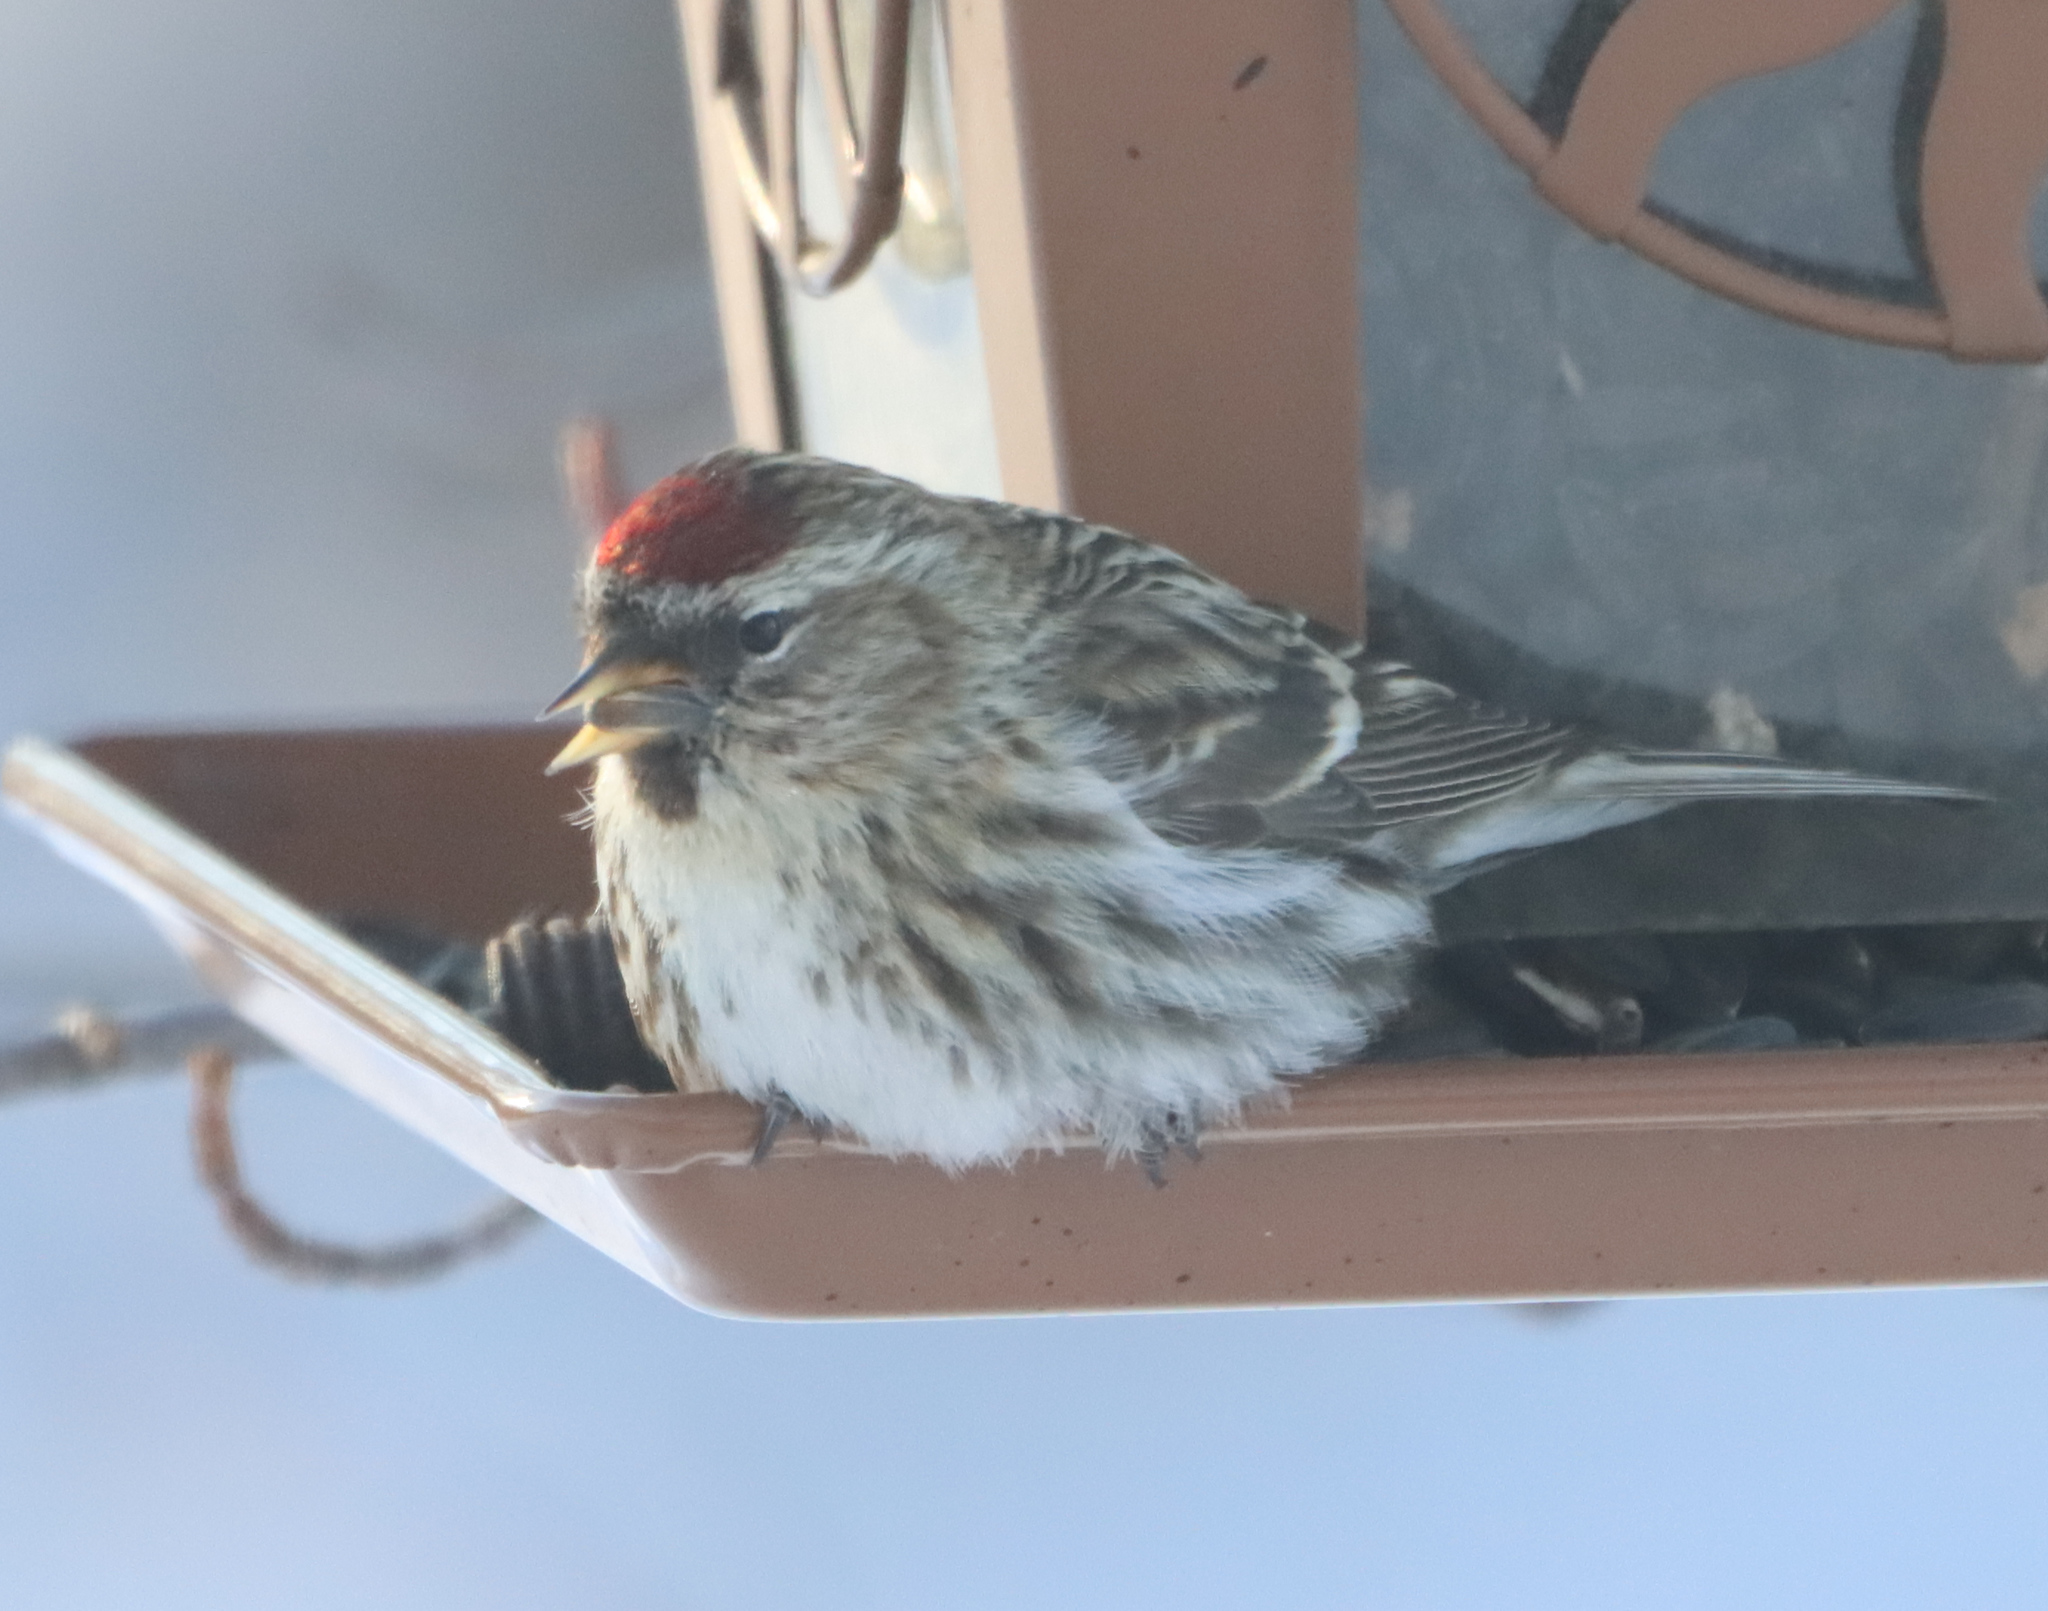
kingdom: Animalia
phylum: Chordata
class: Aves
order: Passeriformes
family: Fringillidae
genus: Acanthis
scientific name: Acanthis flammea
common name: Common redpoll
